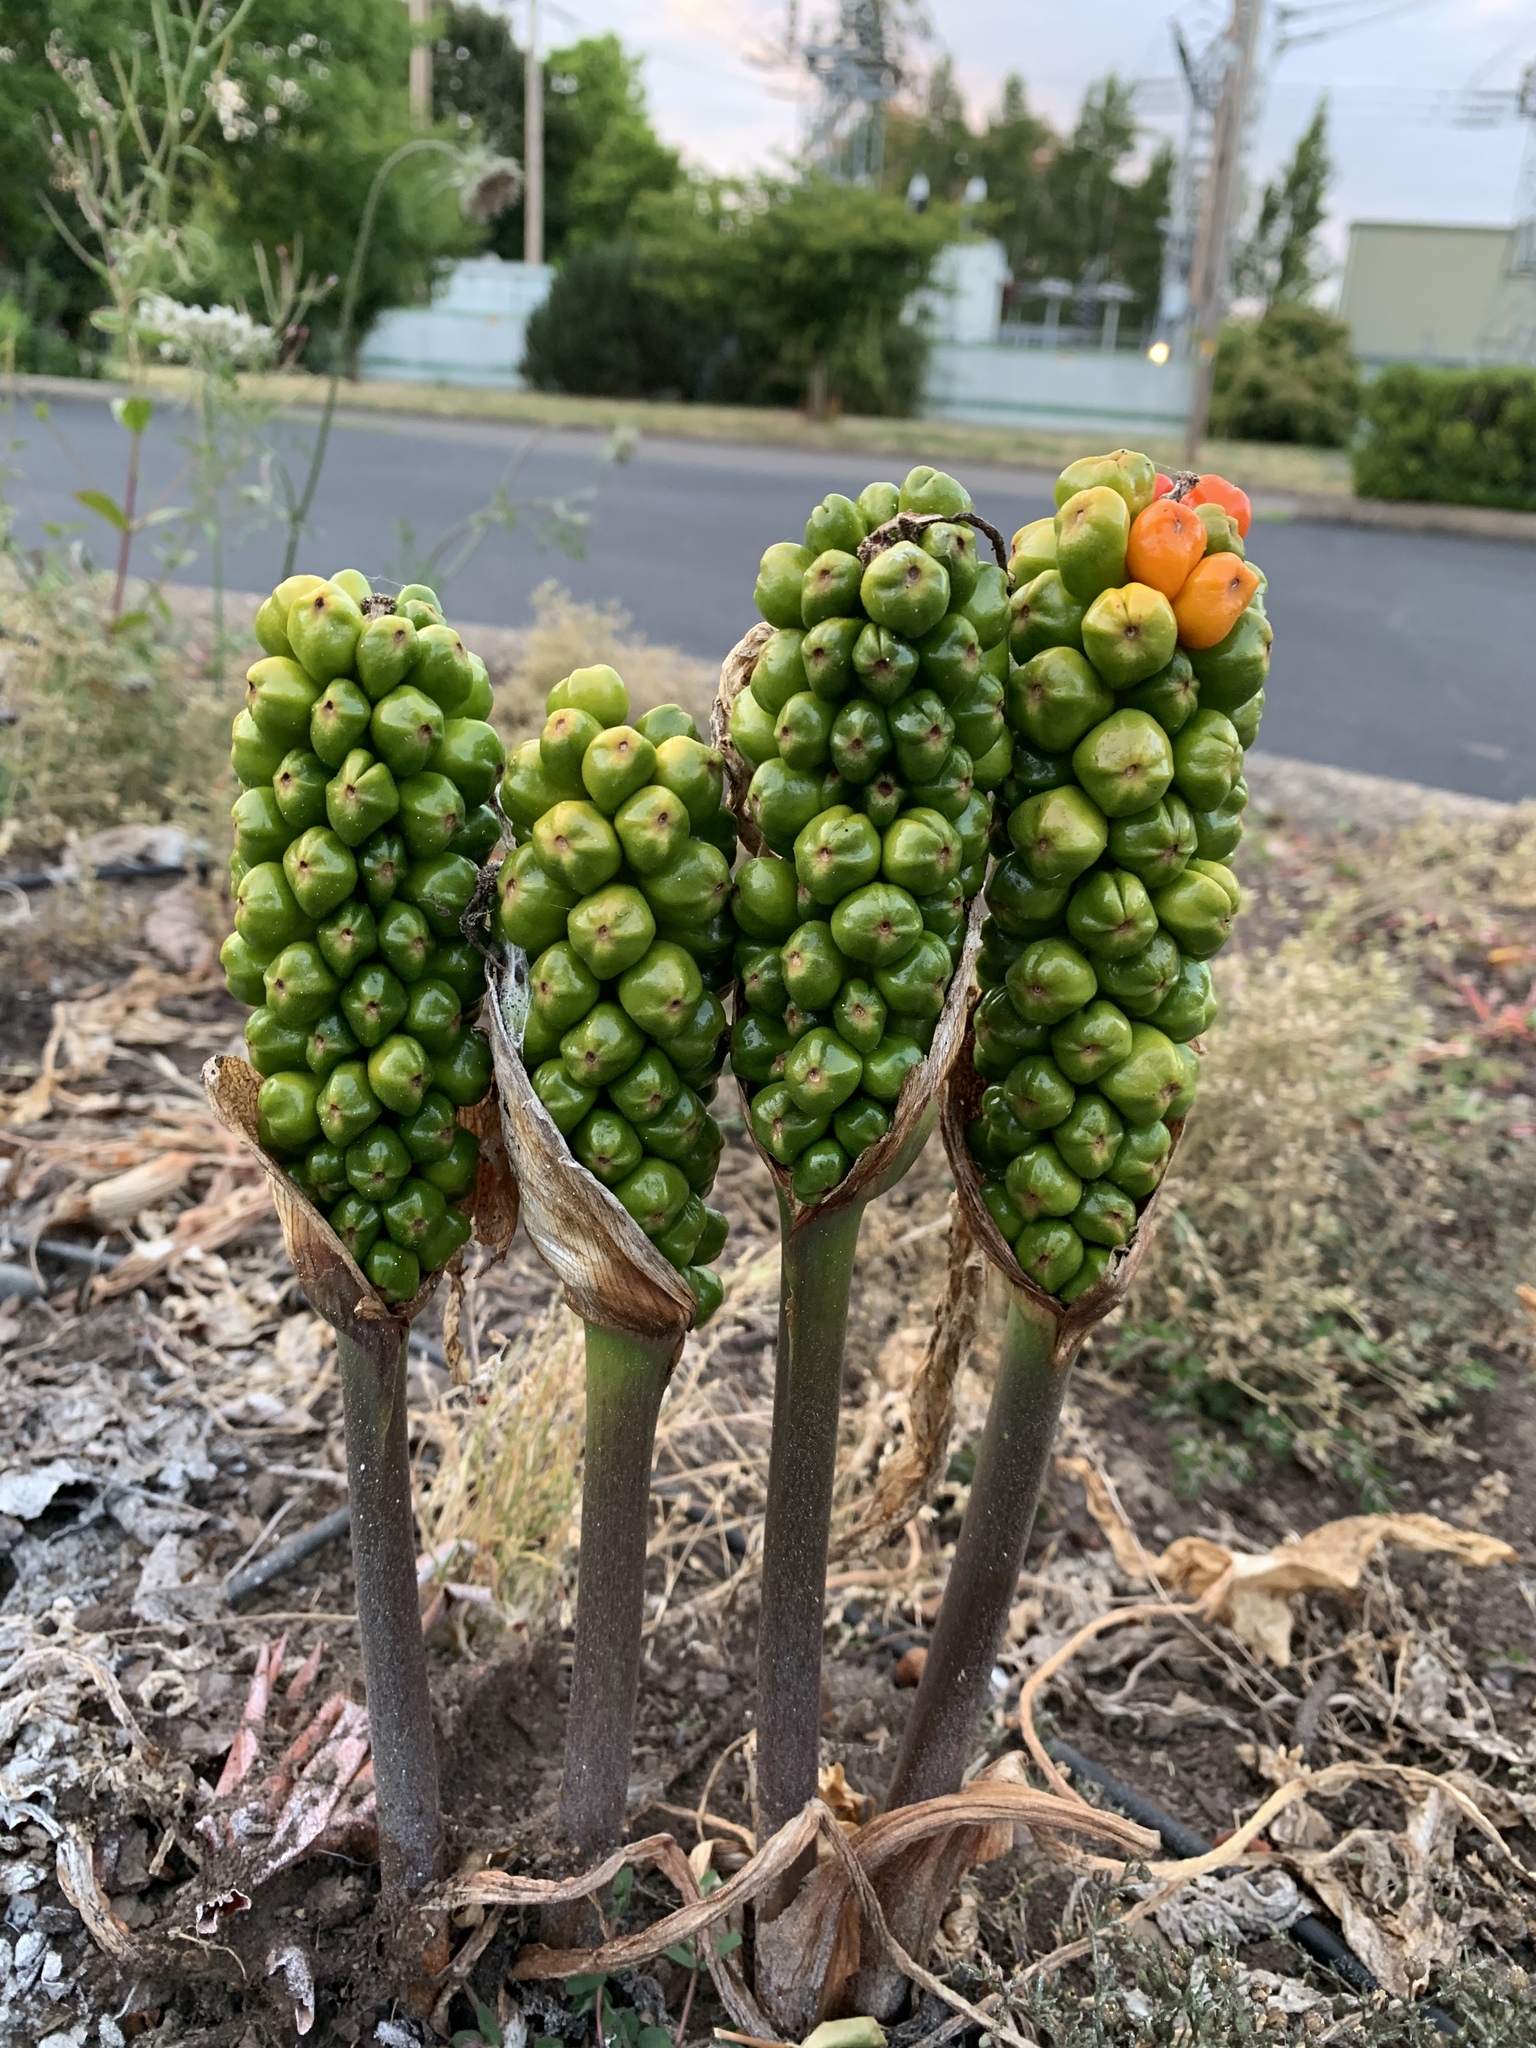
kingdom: Plantae
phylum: Tracheophyta
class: Liliopsida
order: Alismatales
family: Araceae
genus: Arum
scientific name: Arum italicum
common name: Italian lords-and-ladies
